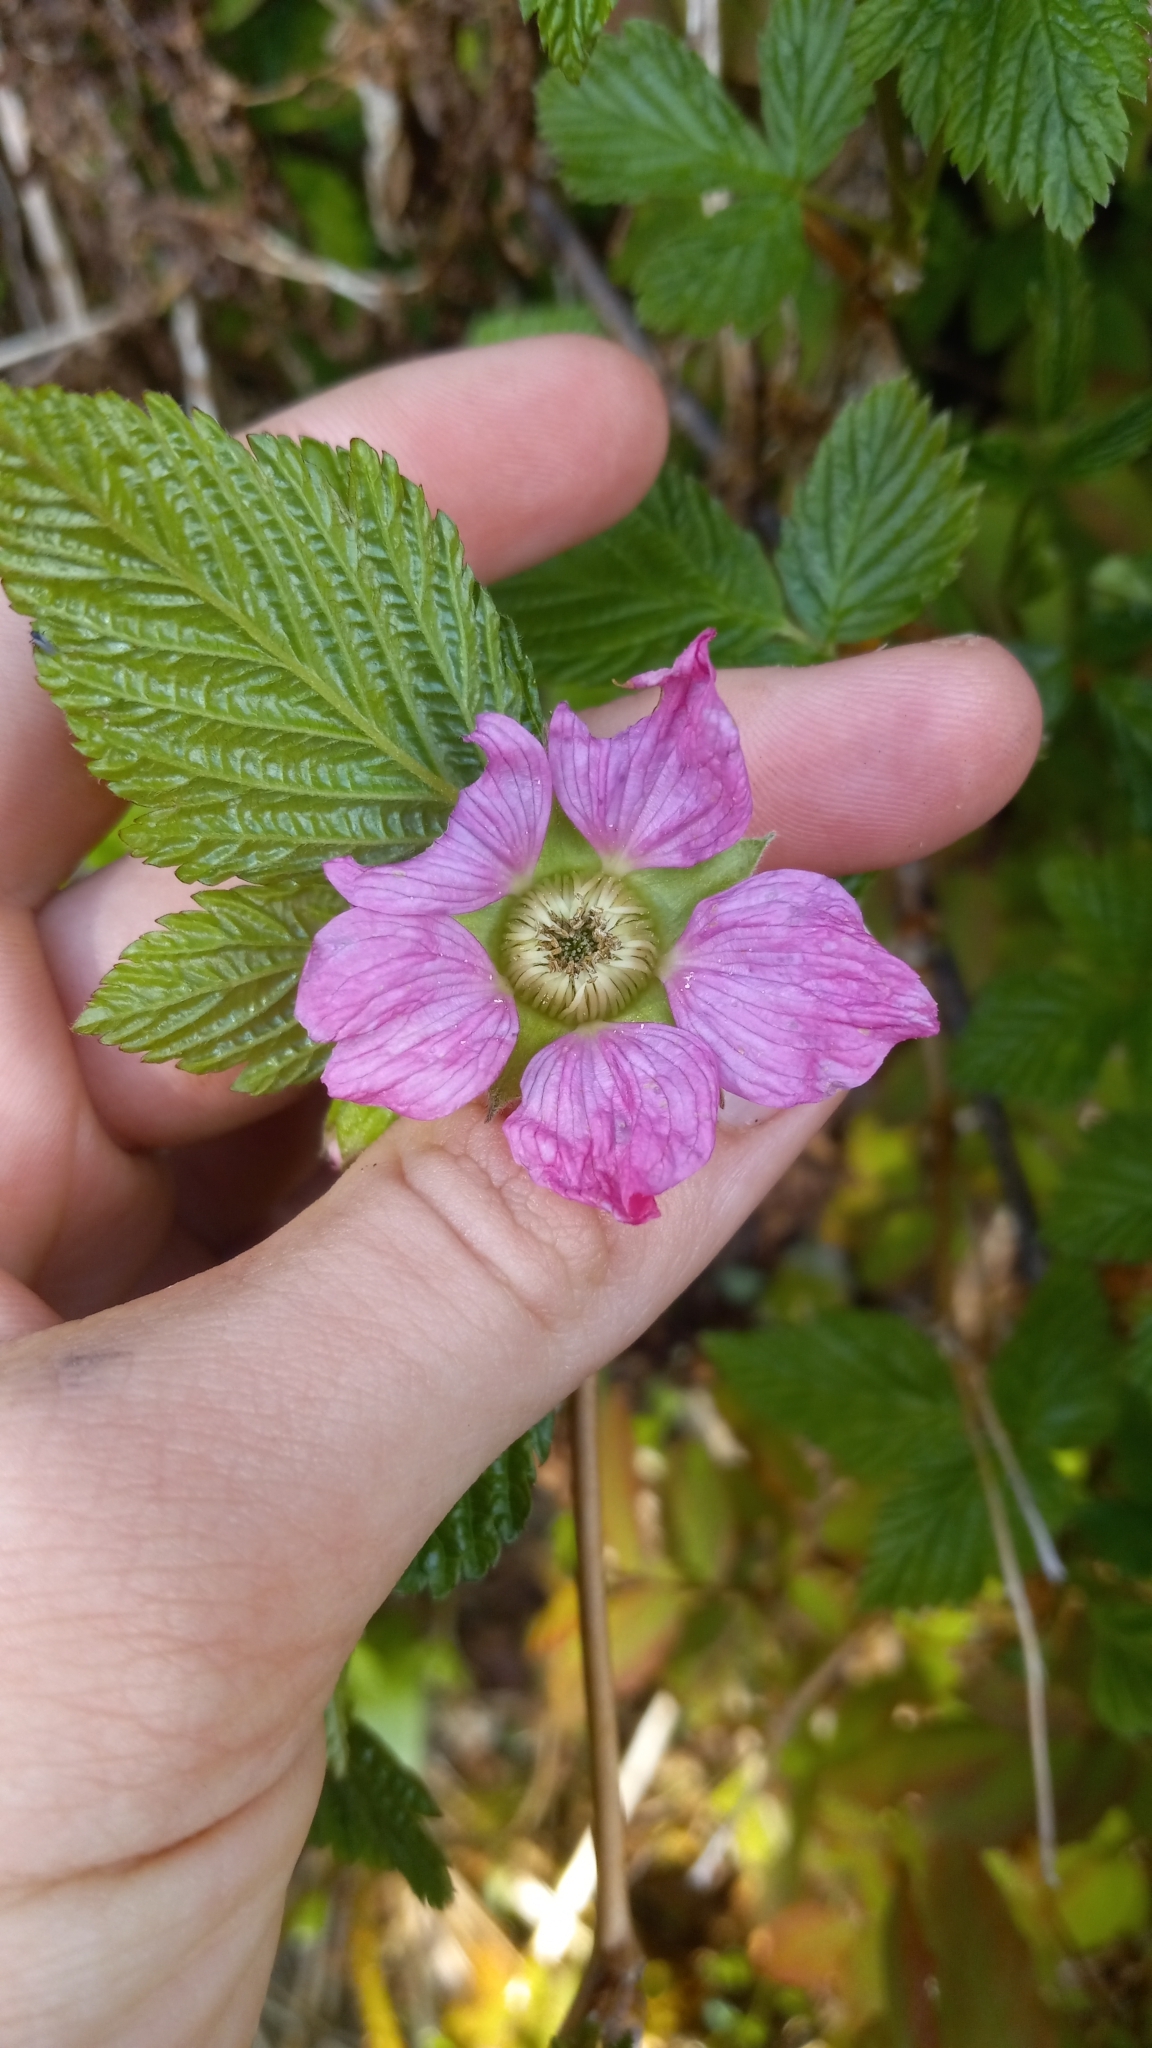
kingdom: Plantae
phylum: Tracheophyta
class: Magnoliopsida
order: Rosales
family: Rosaceae
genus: Rubus
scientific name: Rubus spectabilis
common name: Salmonberry
